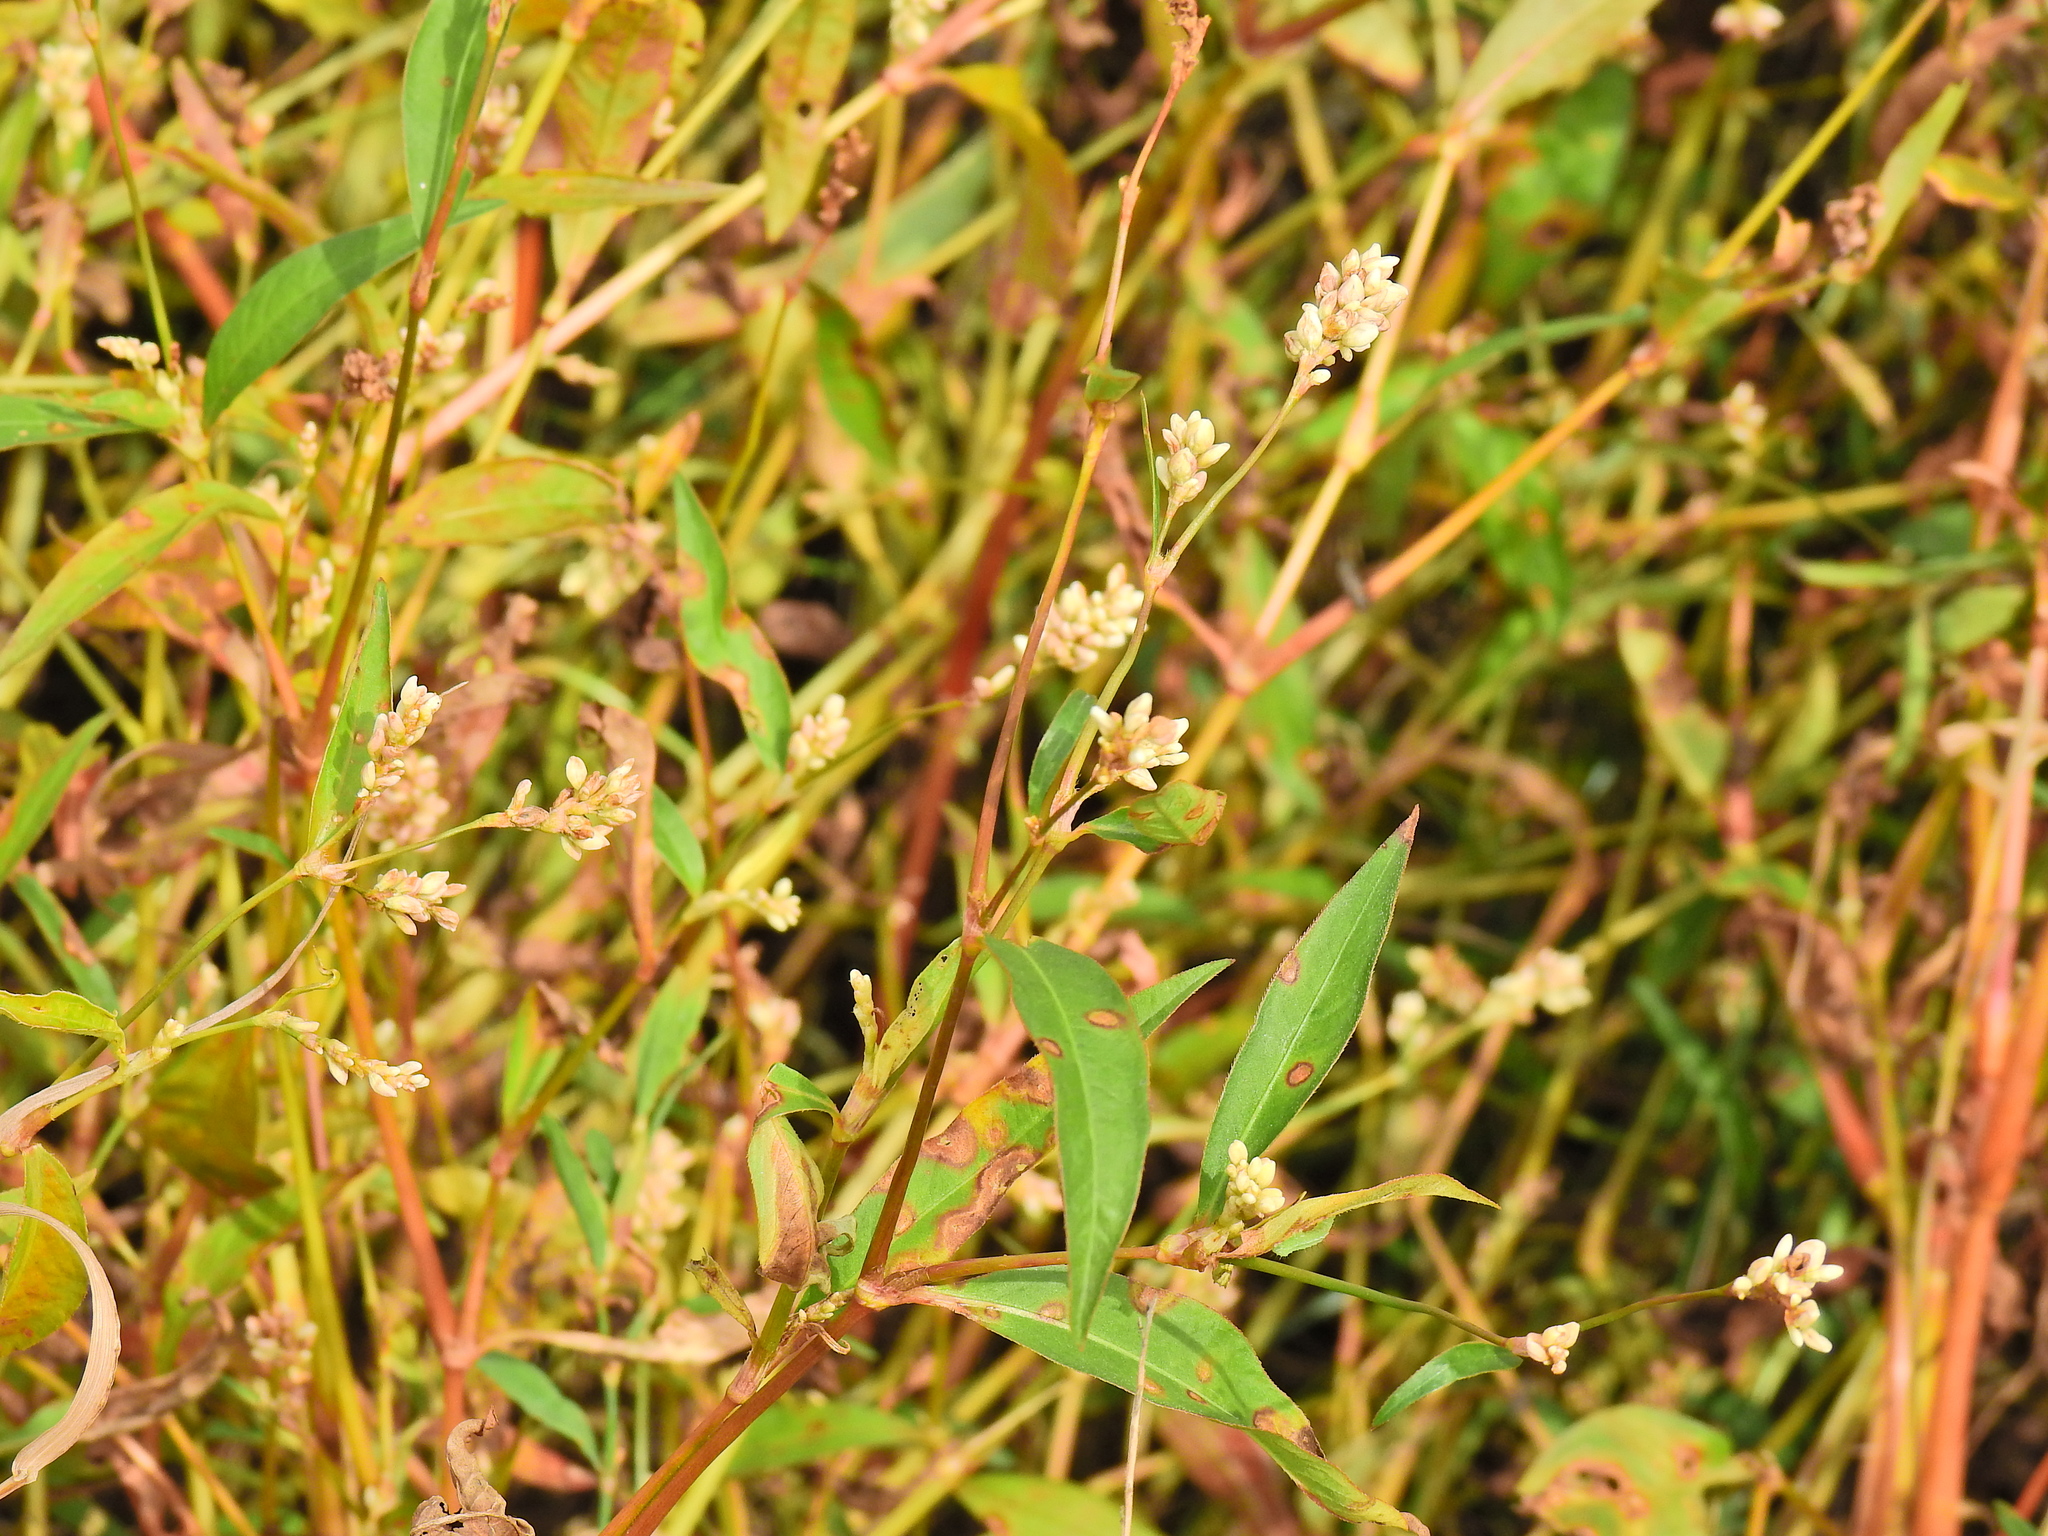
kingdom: Plantae
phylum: Tracheophyta
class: Magnoliopsida
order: Caryophyllales
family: Polygonaceae
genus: Persicaria
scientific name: Persicaria lapathifolia
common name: Curlytop knotweed
